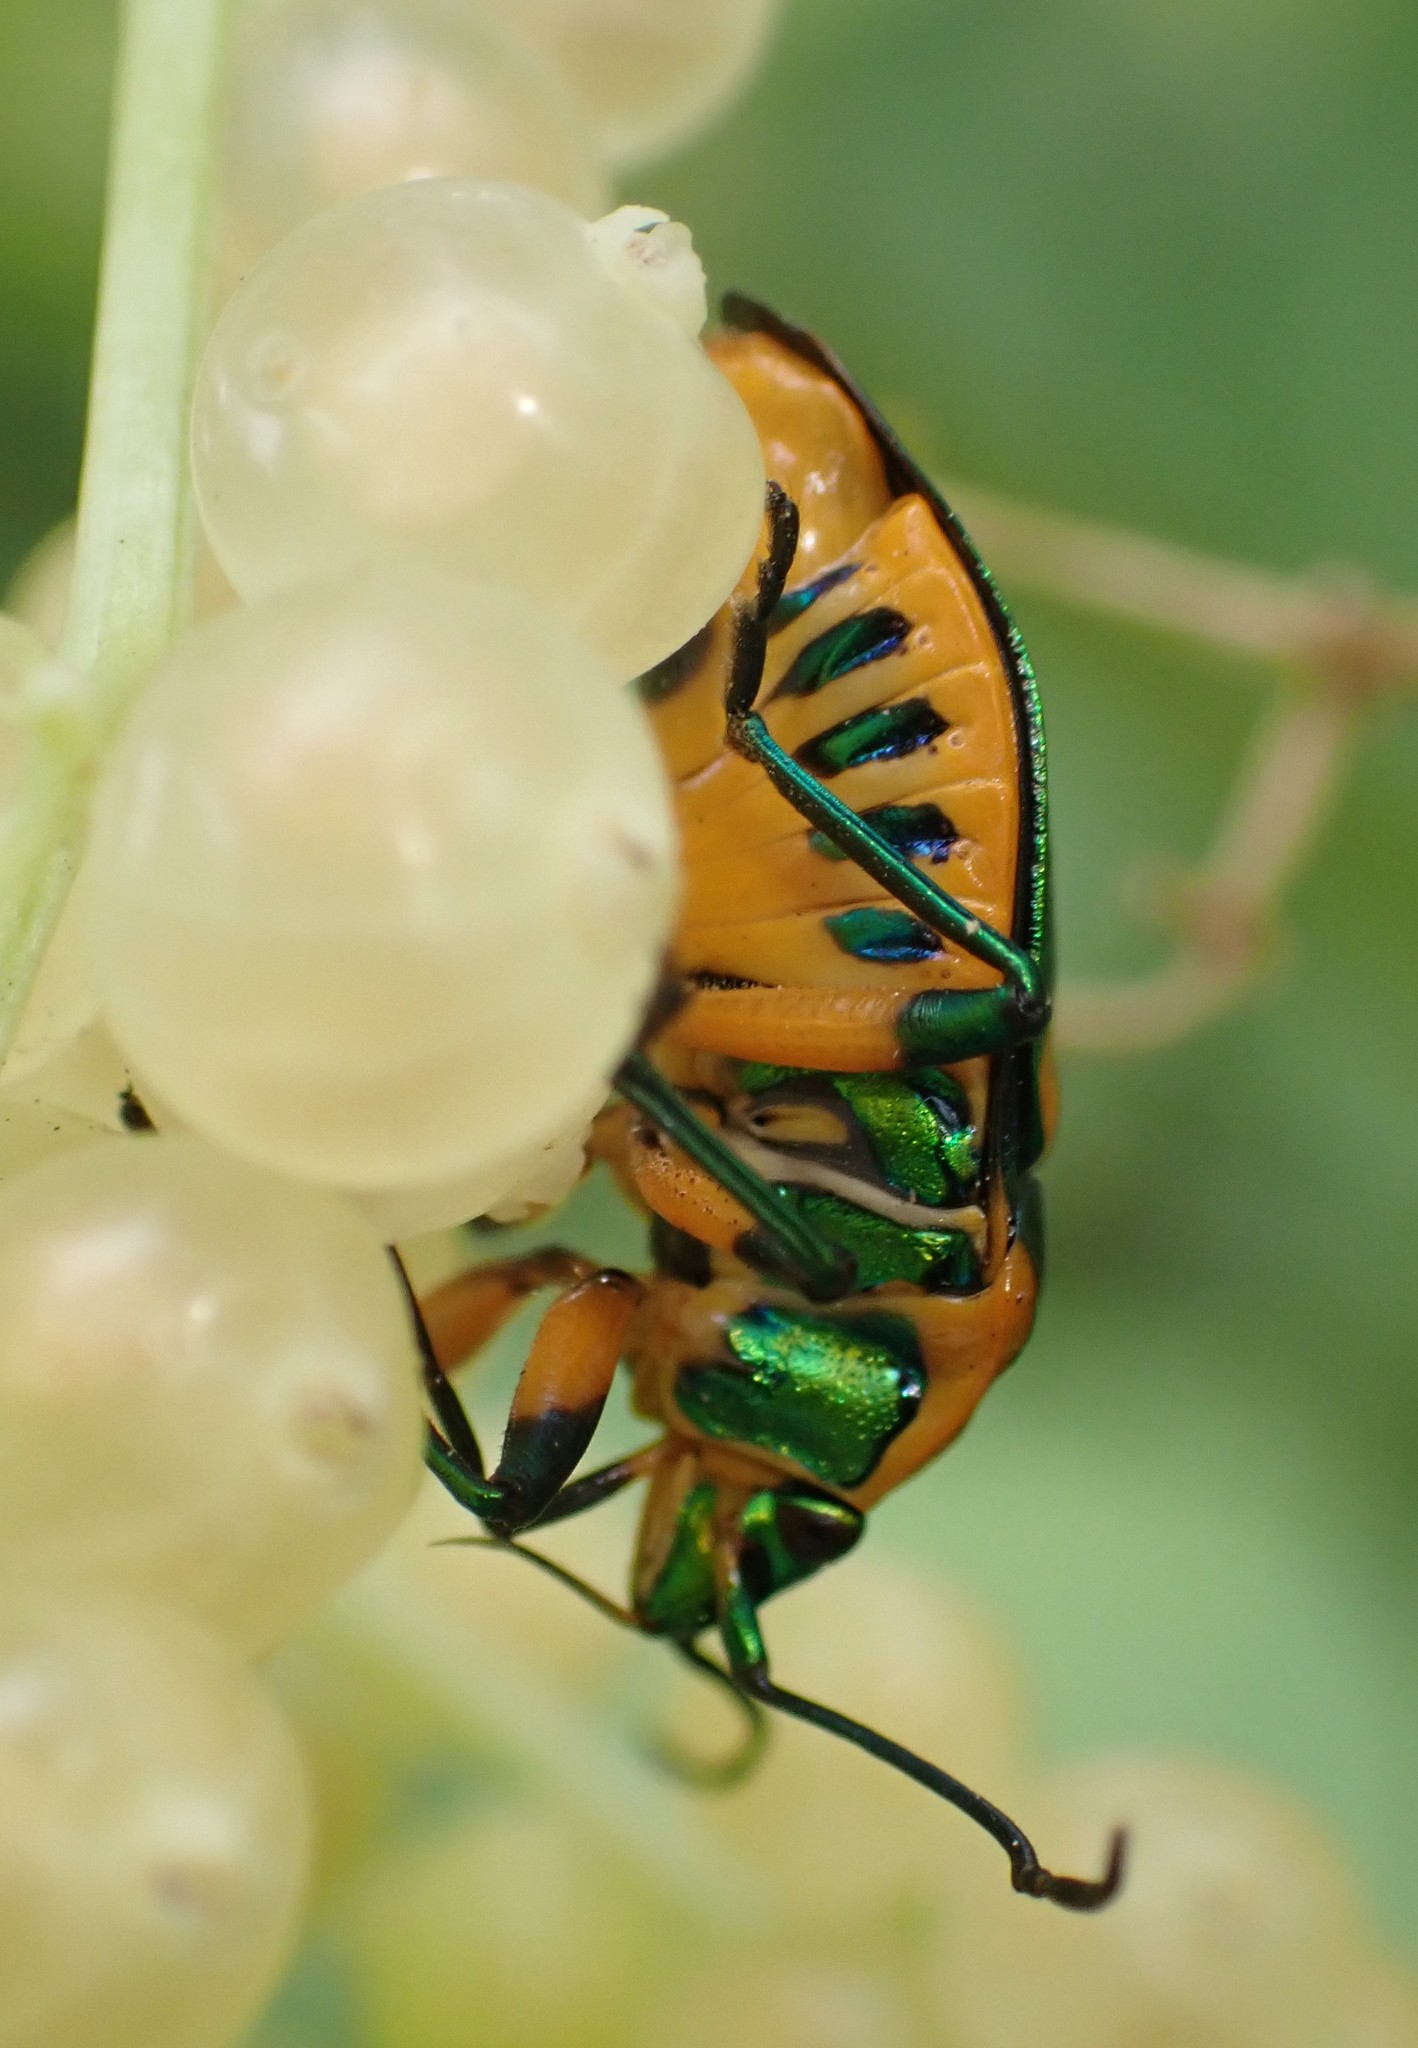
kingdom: Animalia
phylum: Arthropoda
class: Insecta
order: Hemiptera
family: Scutelleridae
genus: Scutiphora
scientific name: Scutiphora pedicellata
